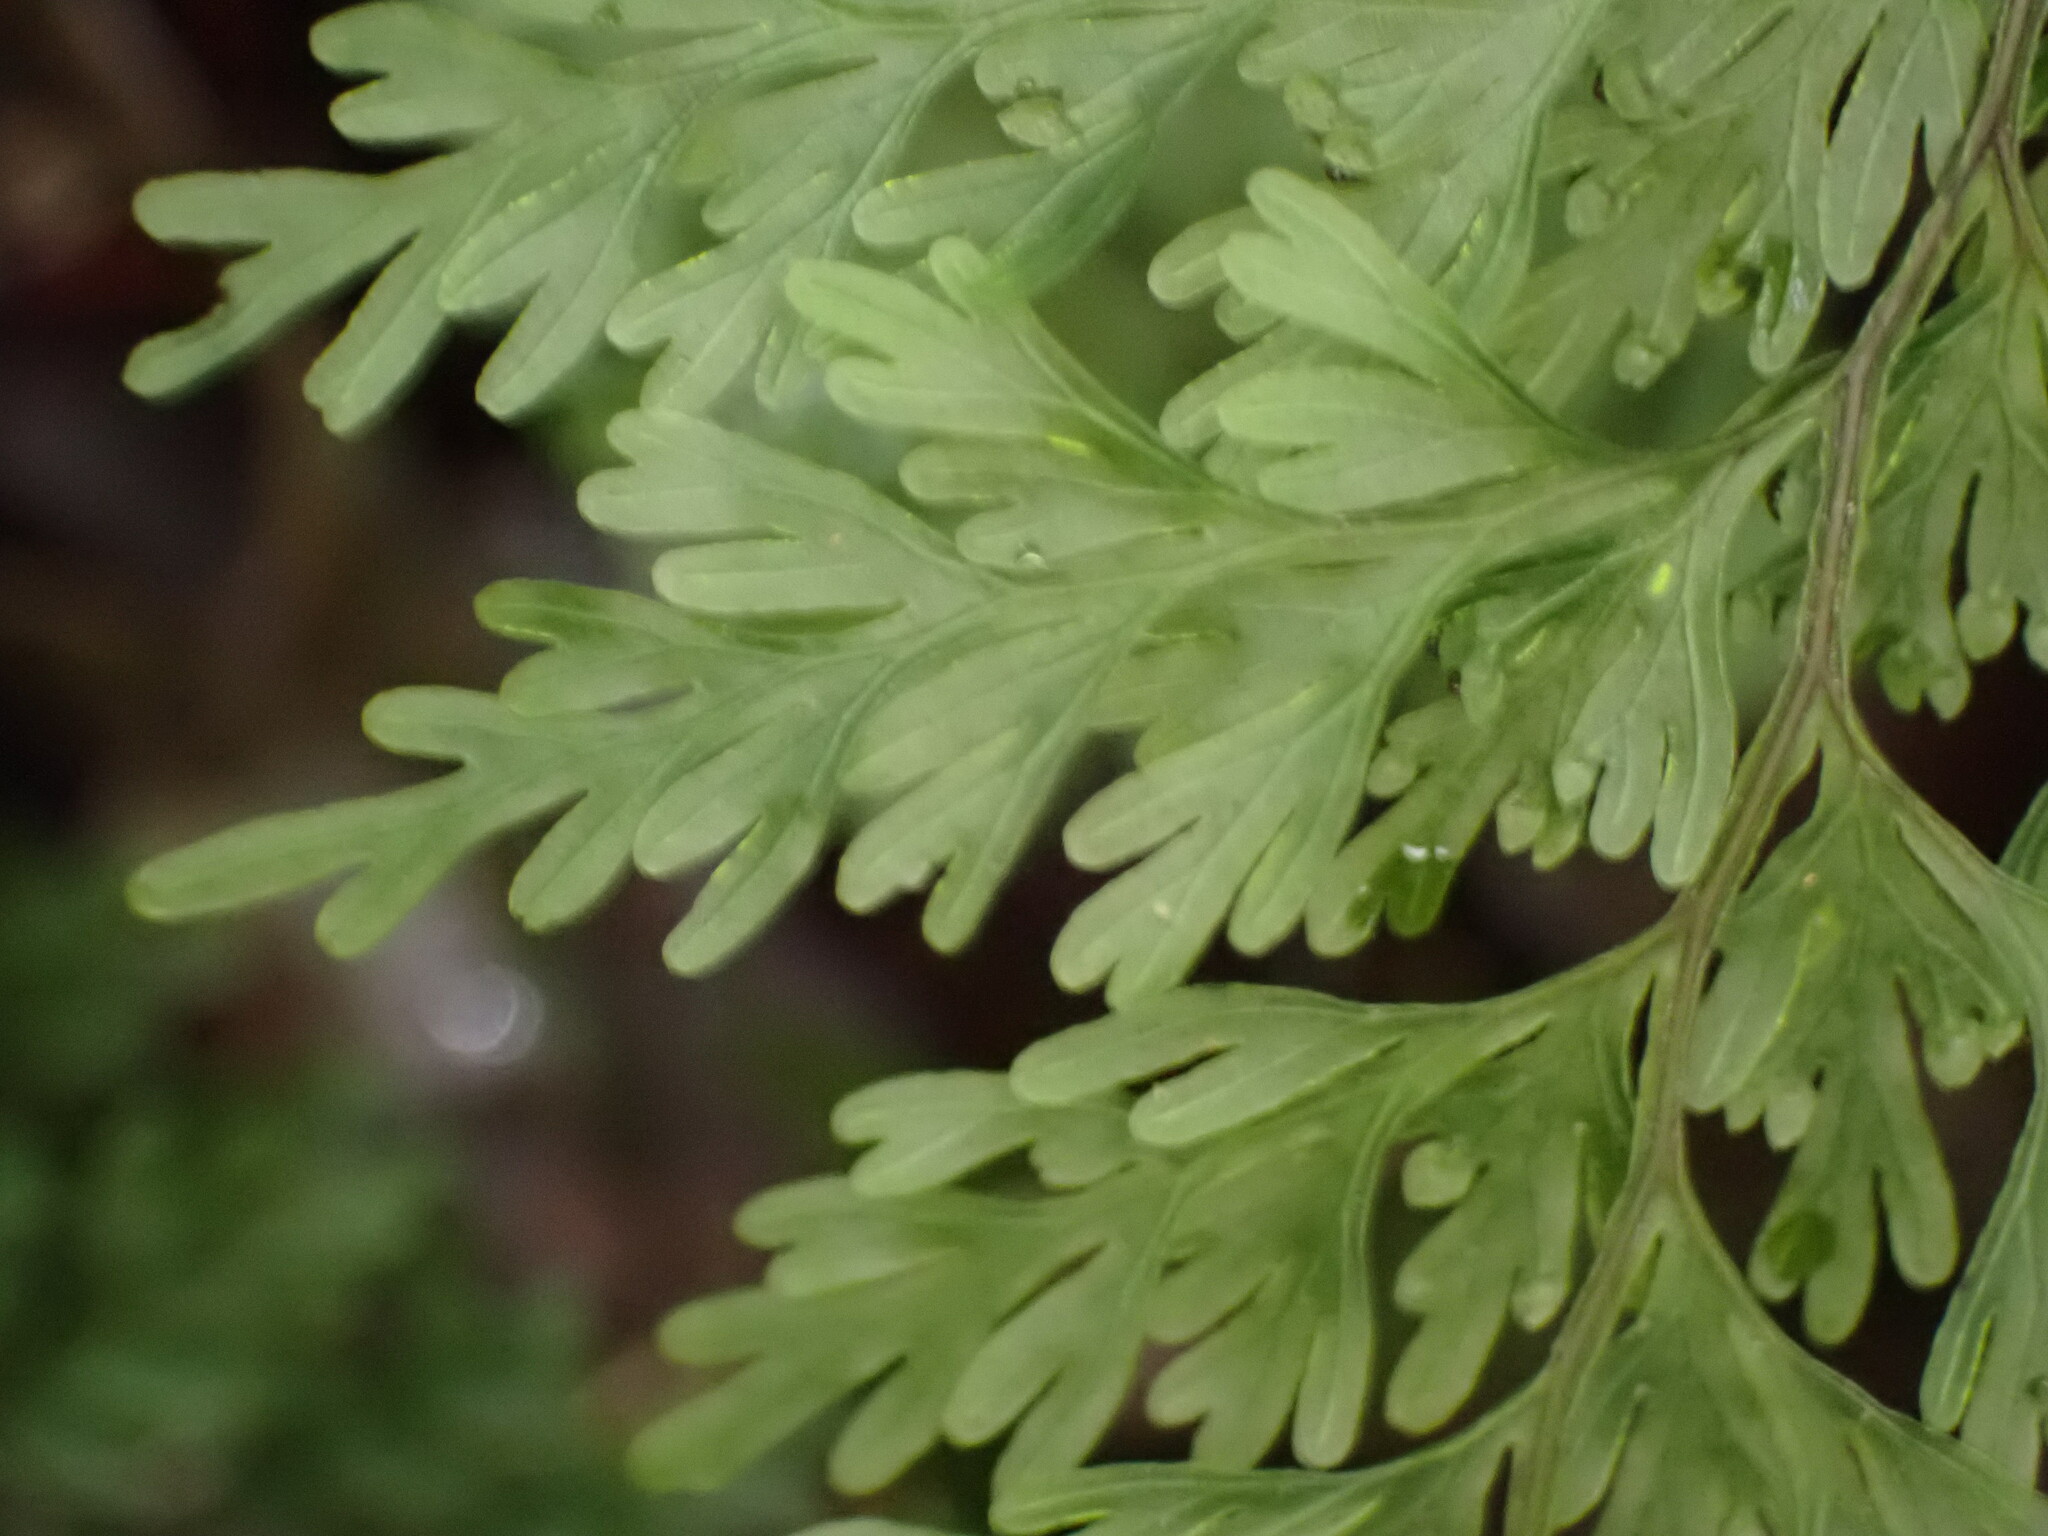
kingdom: Plantae
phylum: Tracheophyta
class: Polypodiopsida
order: Hymenophyllales
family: Hymenophyllaceae
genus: Hymenophyllum
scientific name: Hymenophyllum demissum
